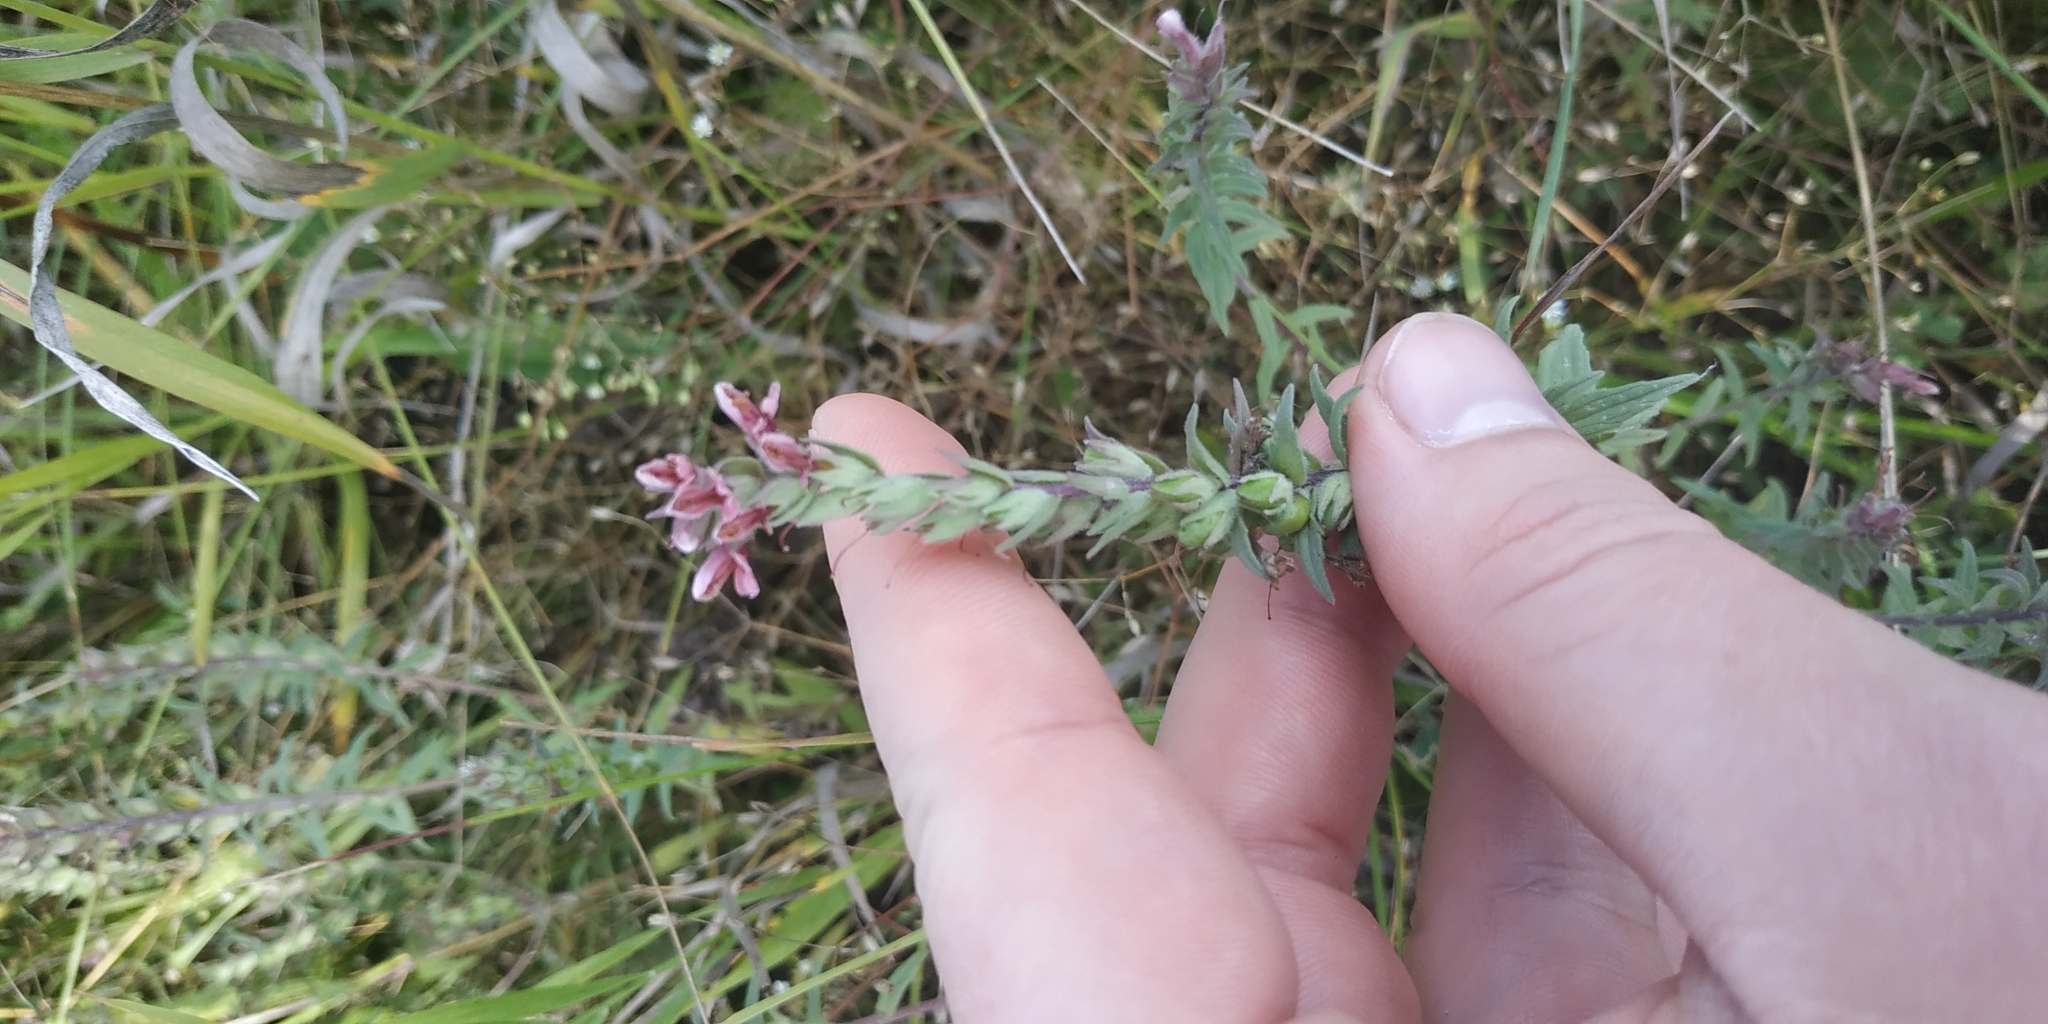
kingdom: Plantae
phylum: Tracheophyta
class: Magnoliopsida
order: Lamiales
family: Orobanchaceae
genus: Odontites
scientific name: Odontites vulgaris
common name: Broomrape
